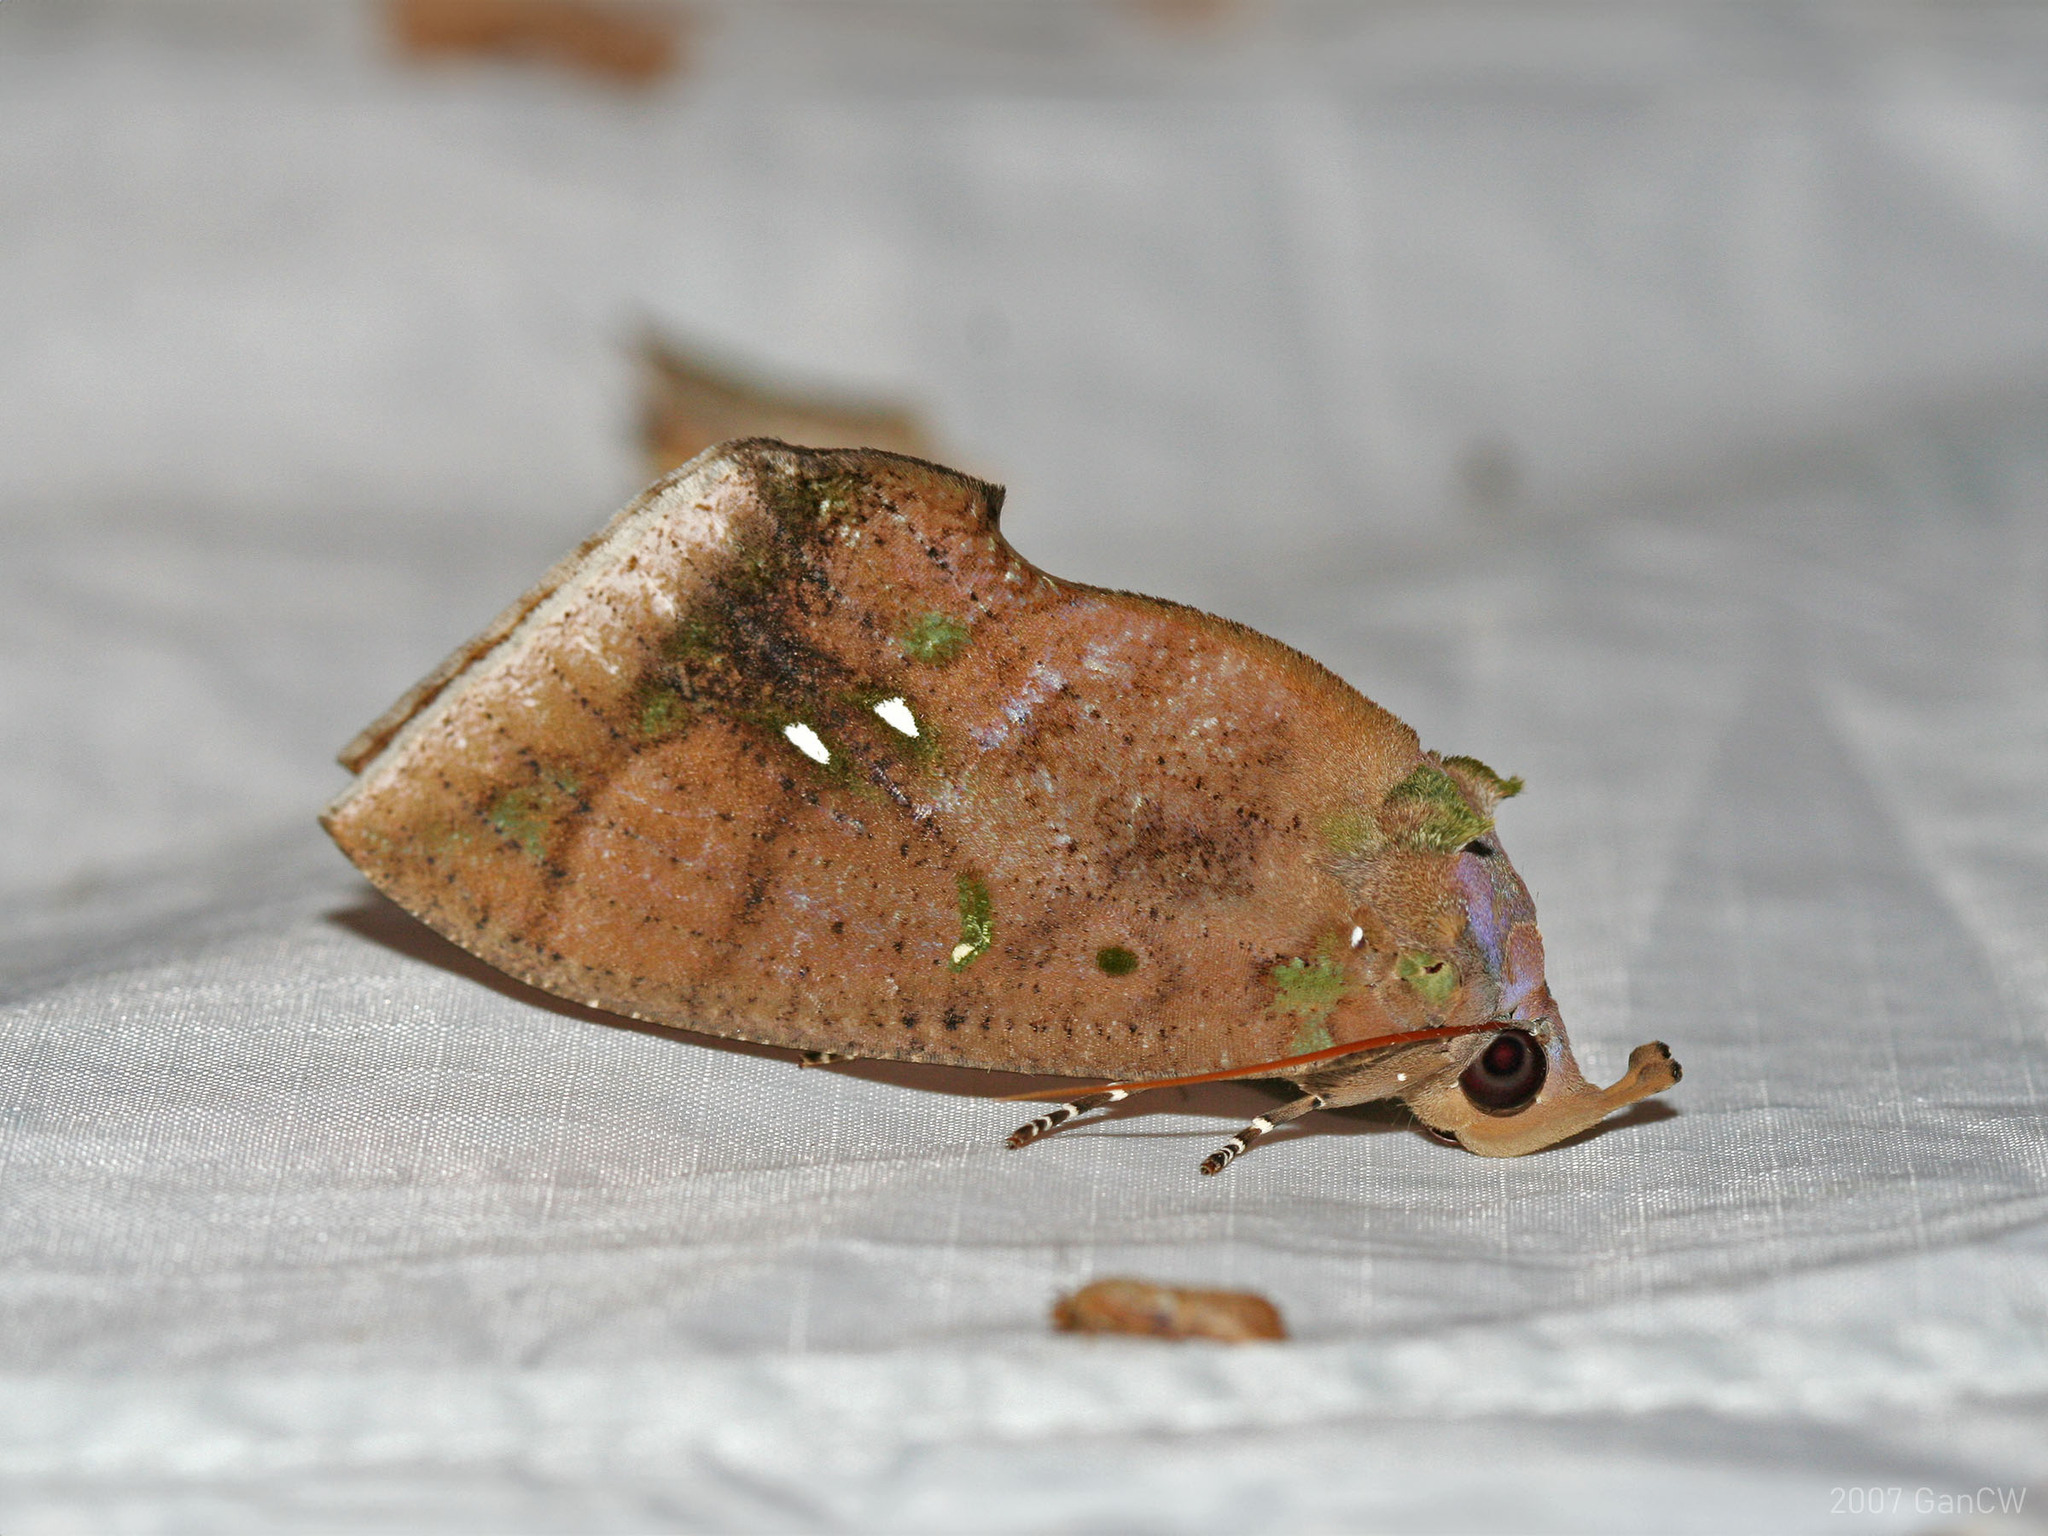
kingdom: Animalia
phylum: Arthropoda
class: Insecta
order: Lepidoptera
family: Erebidae
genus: Eudocima
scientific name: Eudocima discrepans
